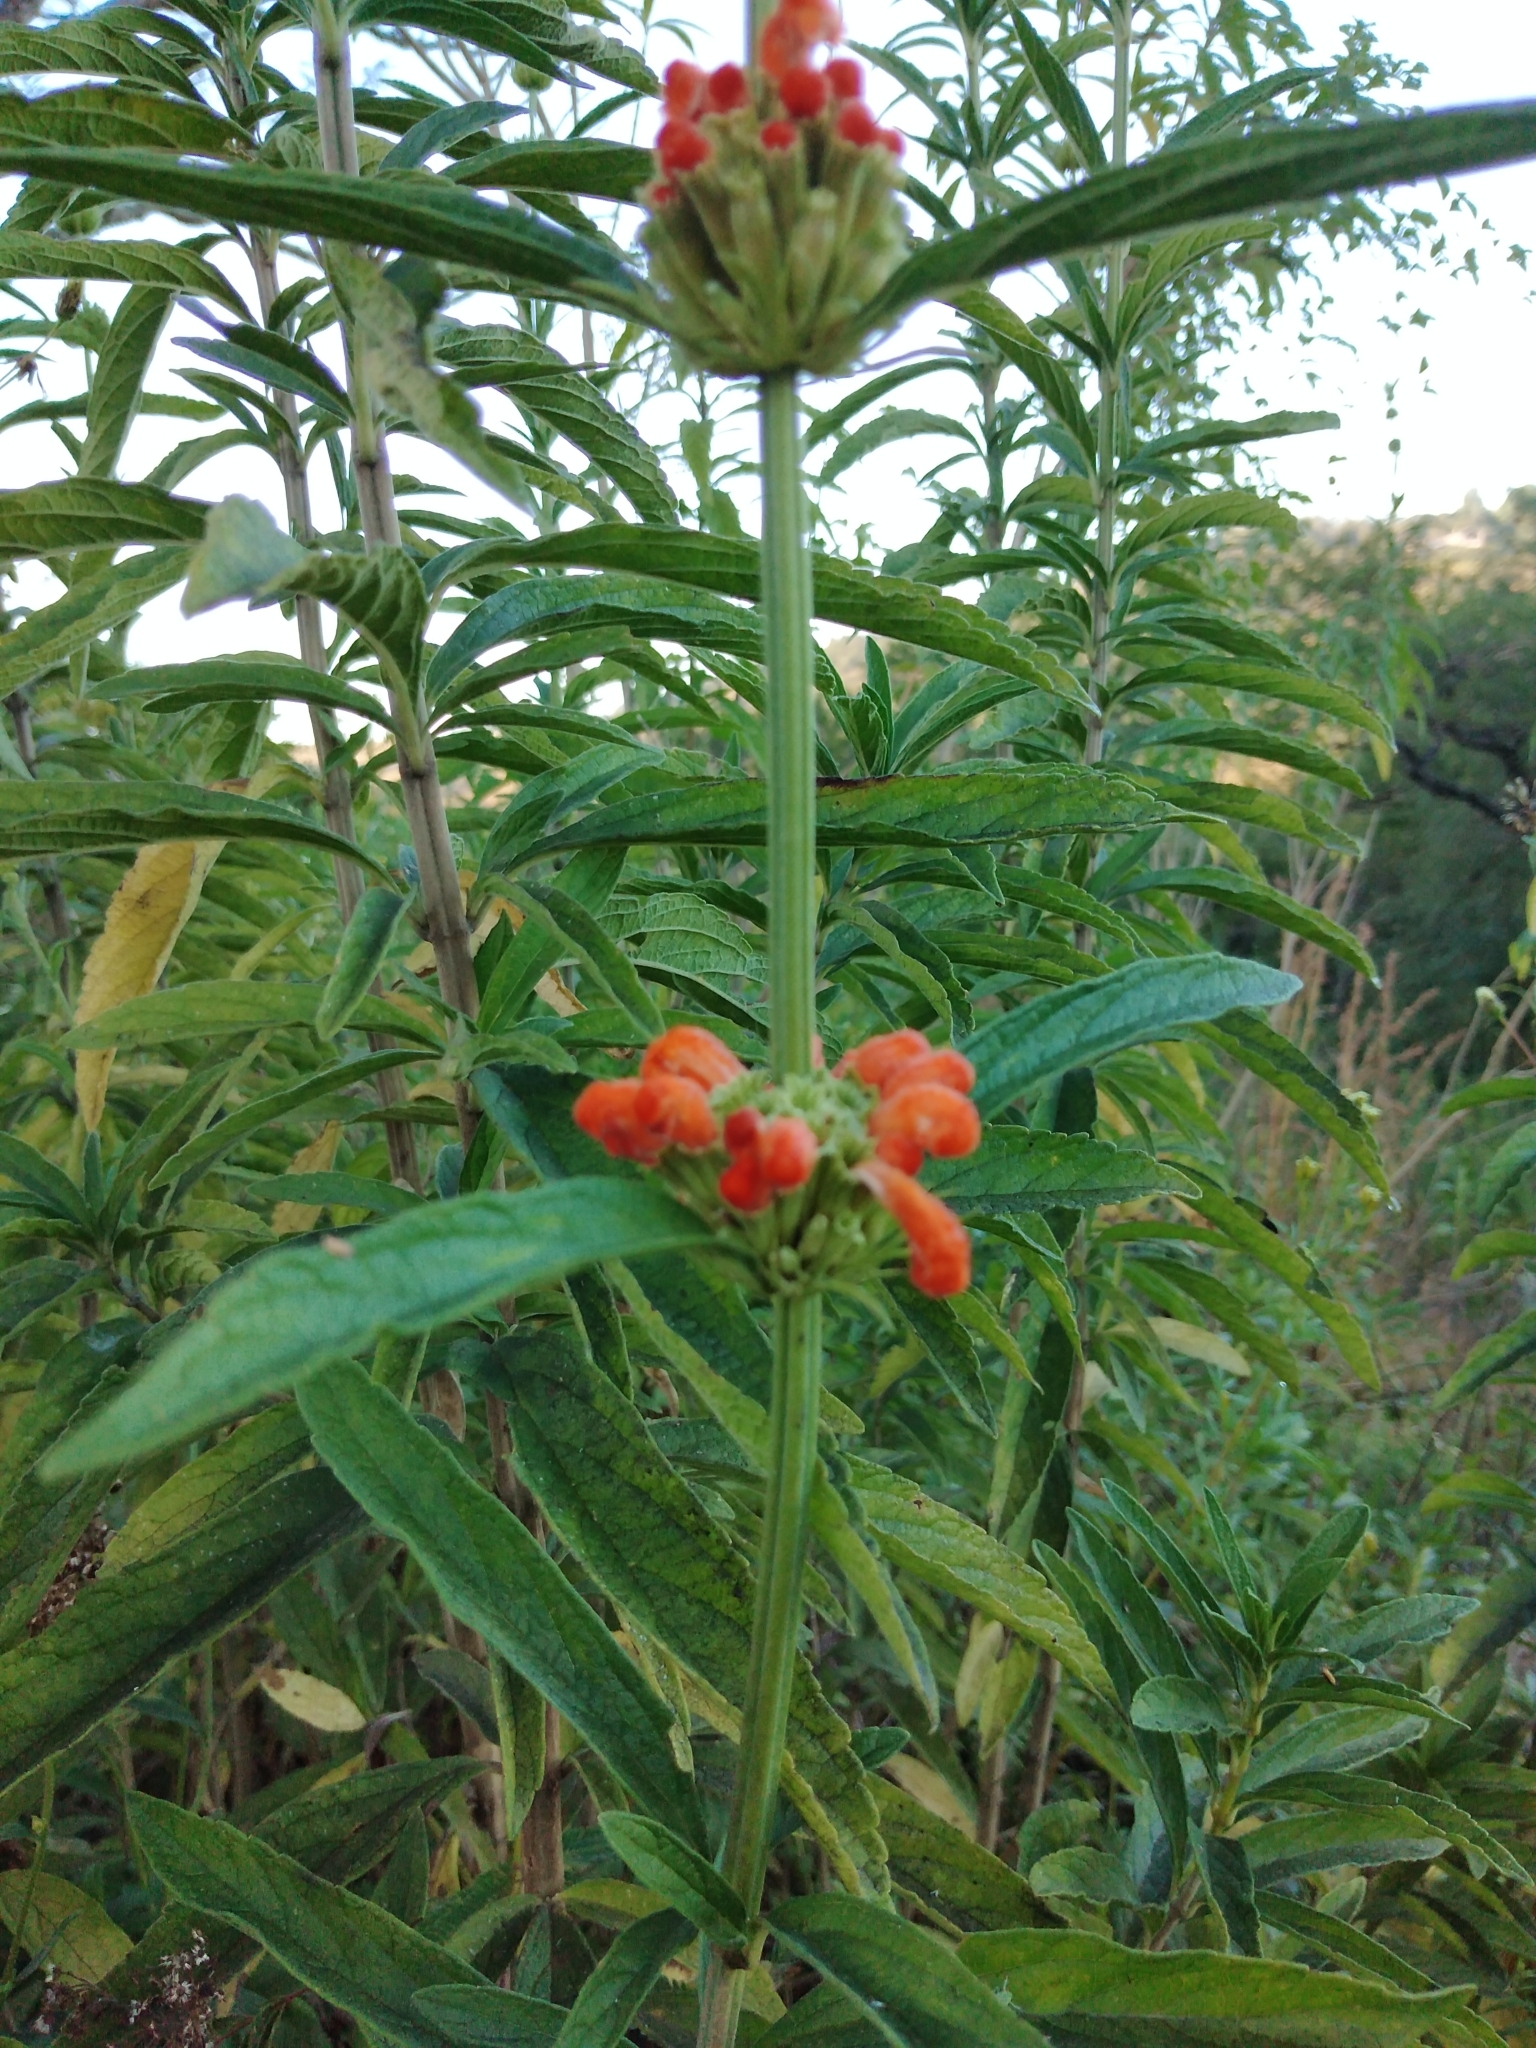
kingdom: Plantae
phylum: Tracheophyta
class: Magnoliopsida
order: Lamiales
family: Lamiaceae
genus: Leonotis
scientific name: Leonotis leonurus
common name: Lion's ear
